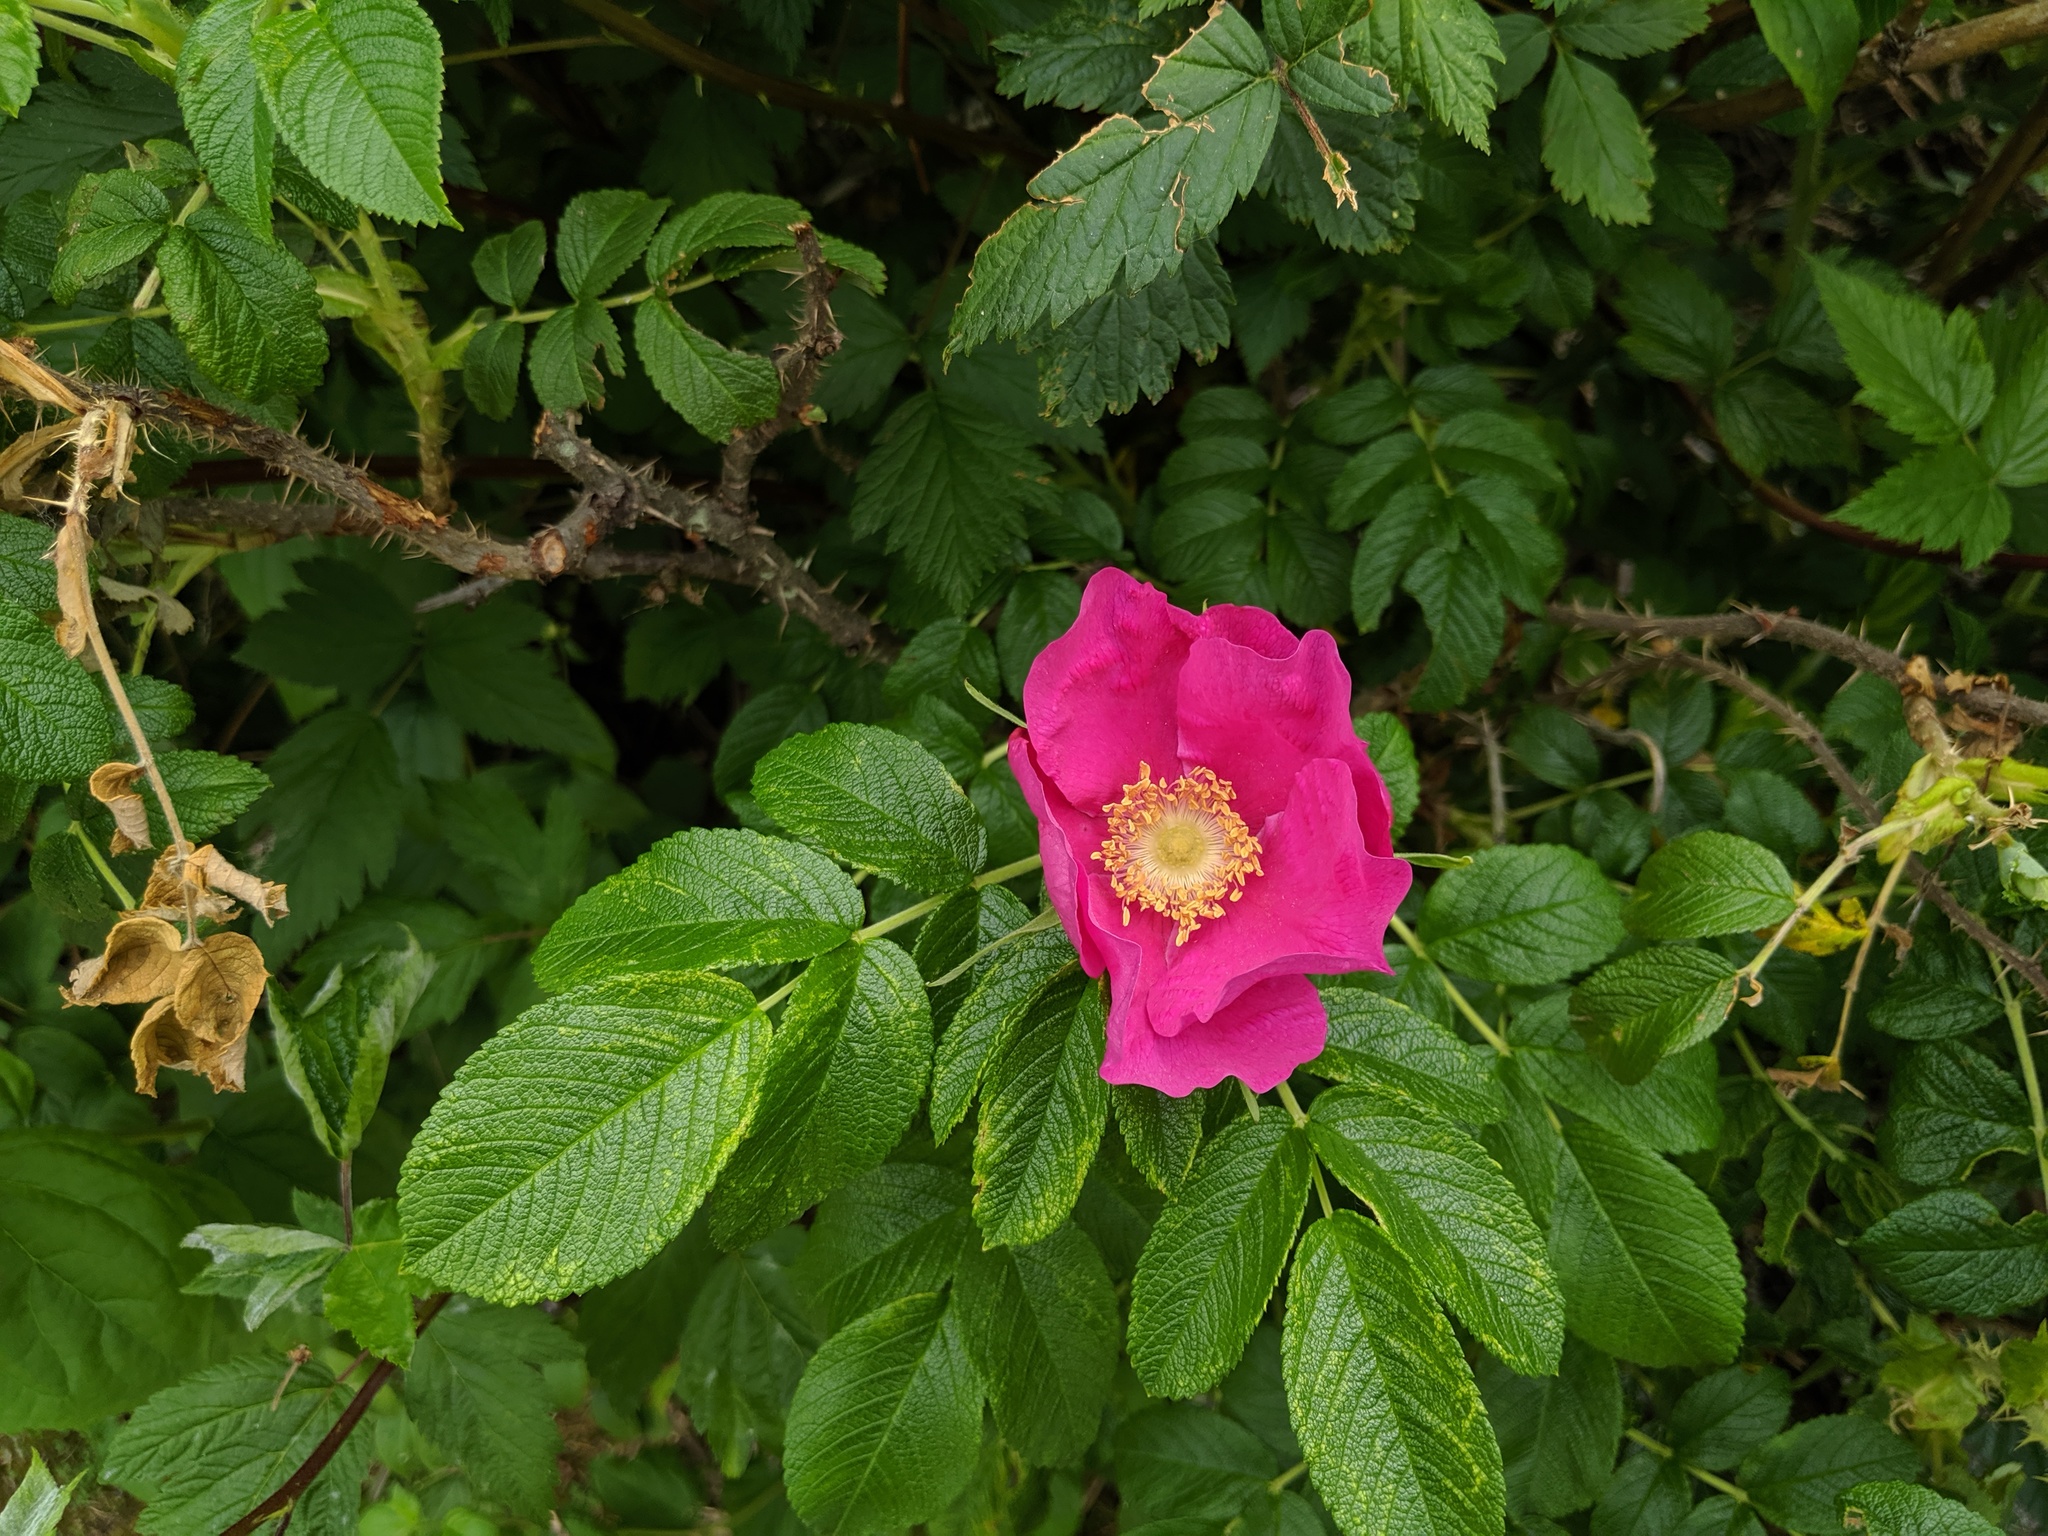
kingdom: Plantae
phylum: Tracheophyta
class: Magnoliopsida
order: Rosales
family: Rosaceae
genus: Rosa
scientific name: Rosa rugosa
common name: Japanese rose
